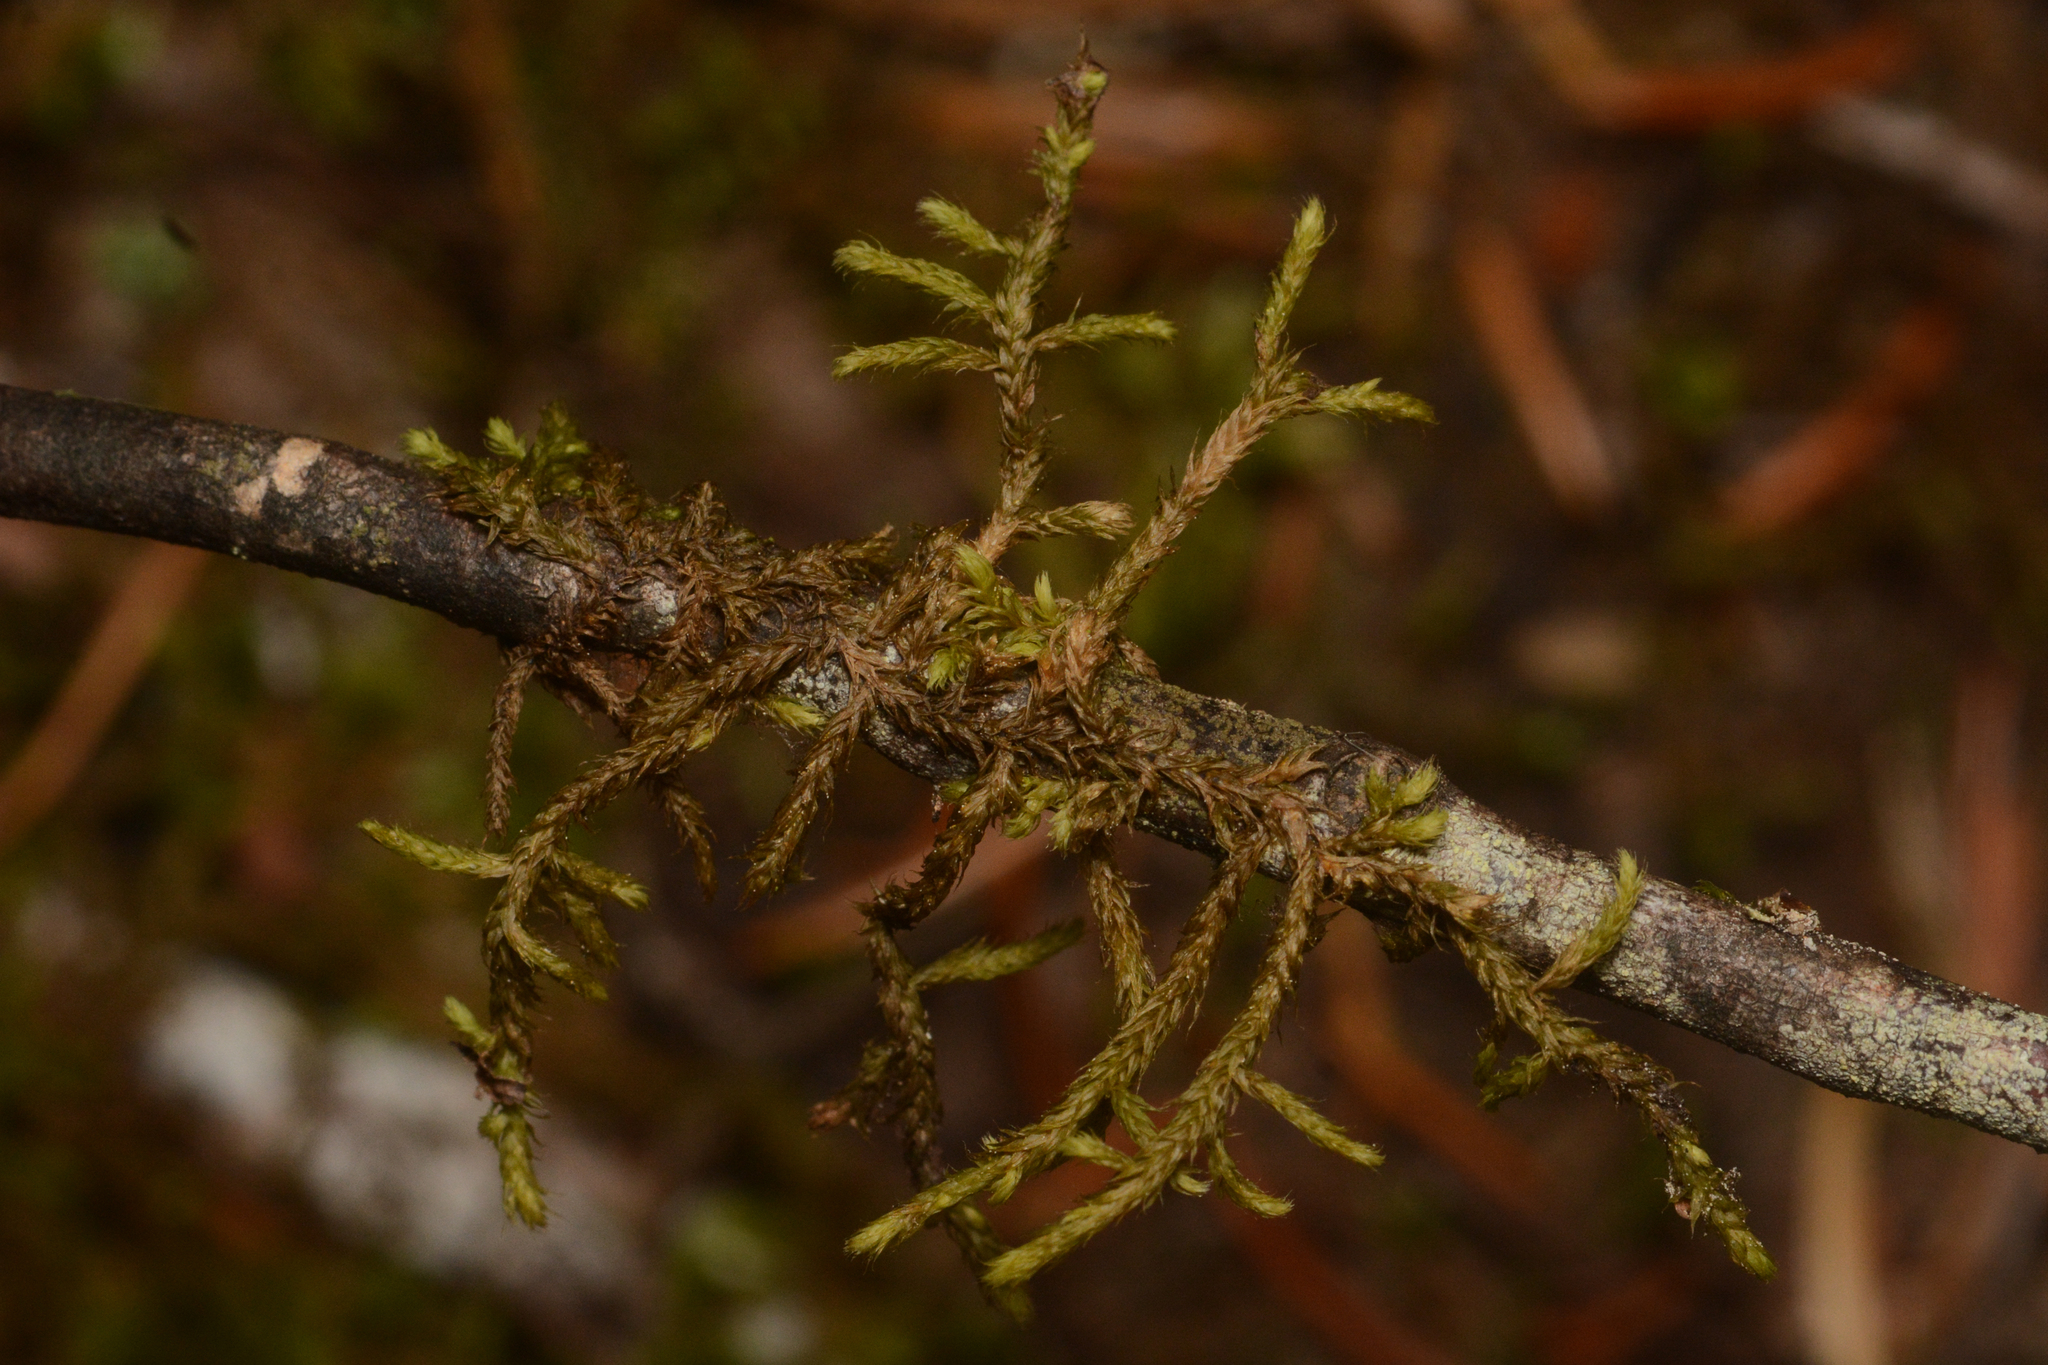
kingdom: Plantae
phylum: Bryophyta
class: Bryopsida
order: Hypnales
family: Leskeaceae
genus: Leskea
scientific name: Leskea polycarpa
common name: Many-fruited leske's moss
